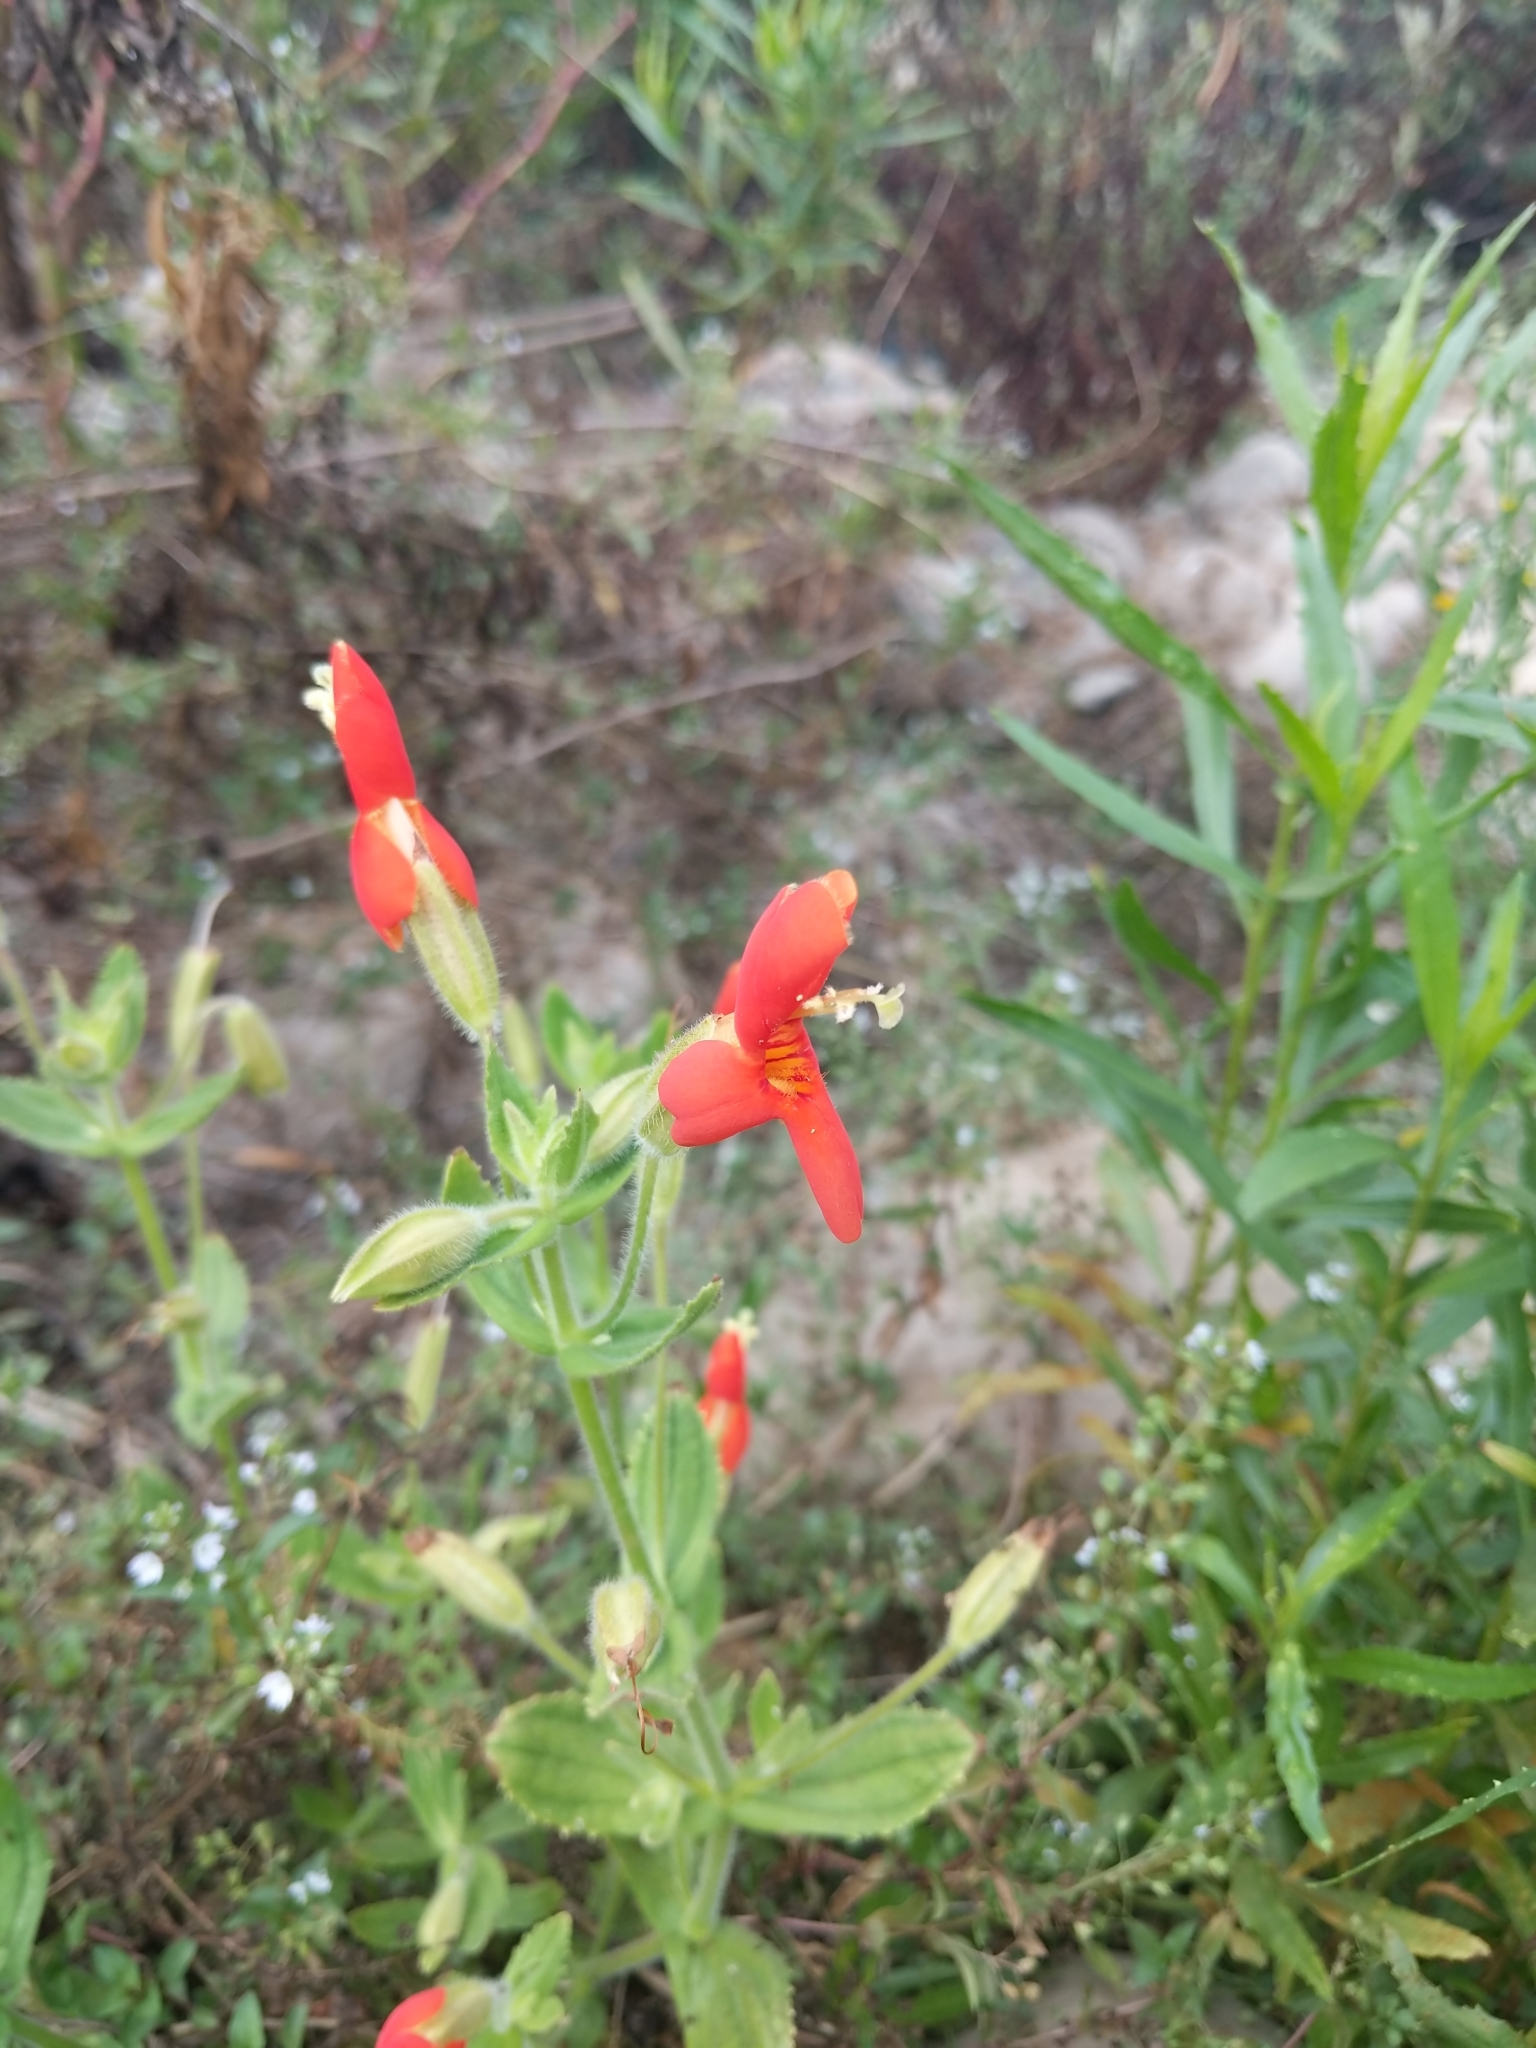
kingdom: Plantae
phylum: Tracheophyta
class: Magnoliopsida
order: Lamiales
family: Phrymaceae
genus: Erythranthe
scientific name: Erythranthe cardinalis
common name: Scarlet monkey-flower
